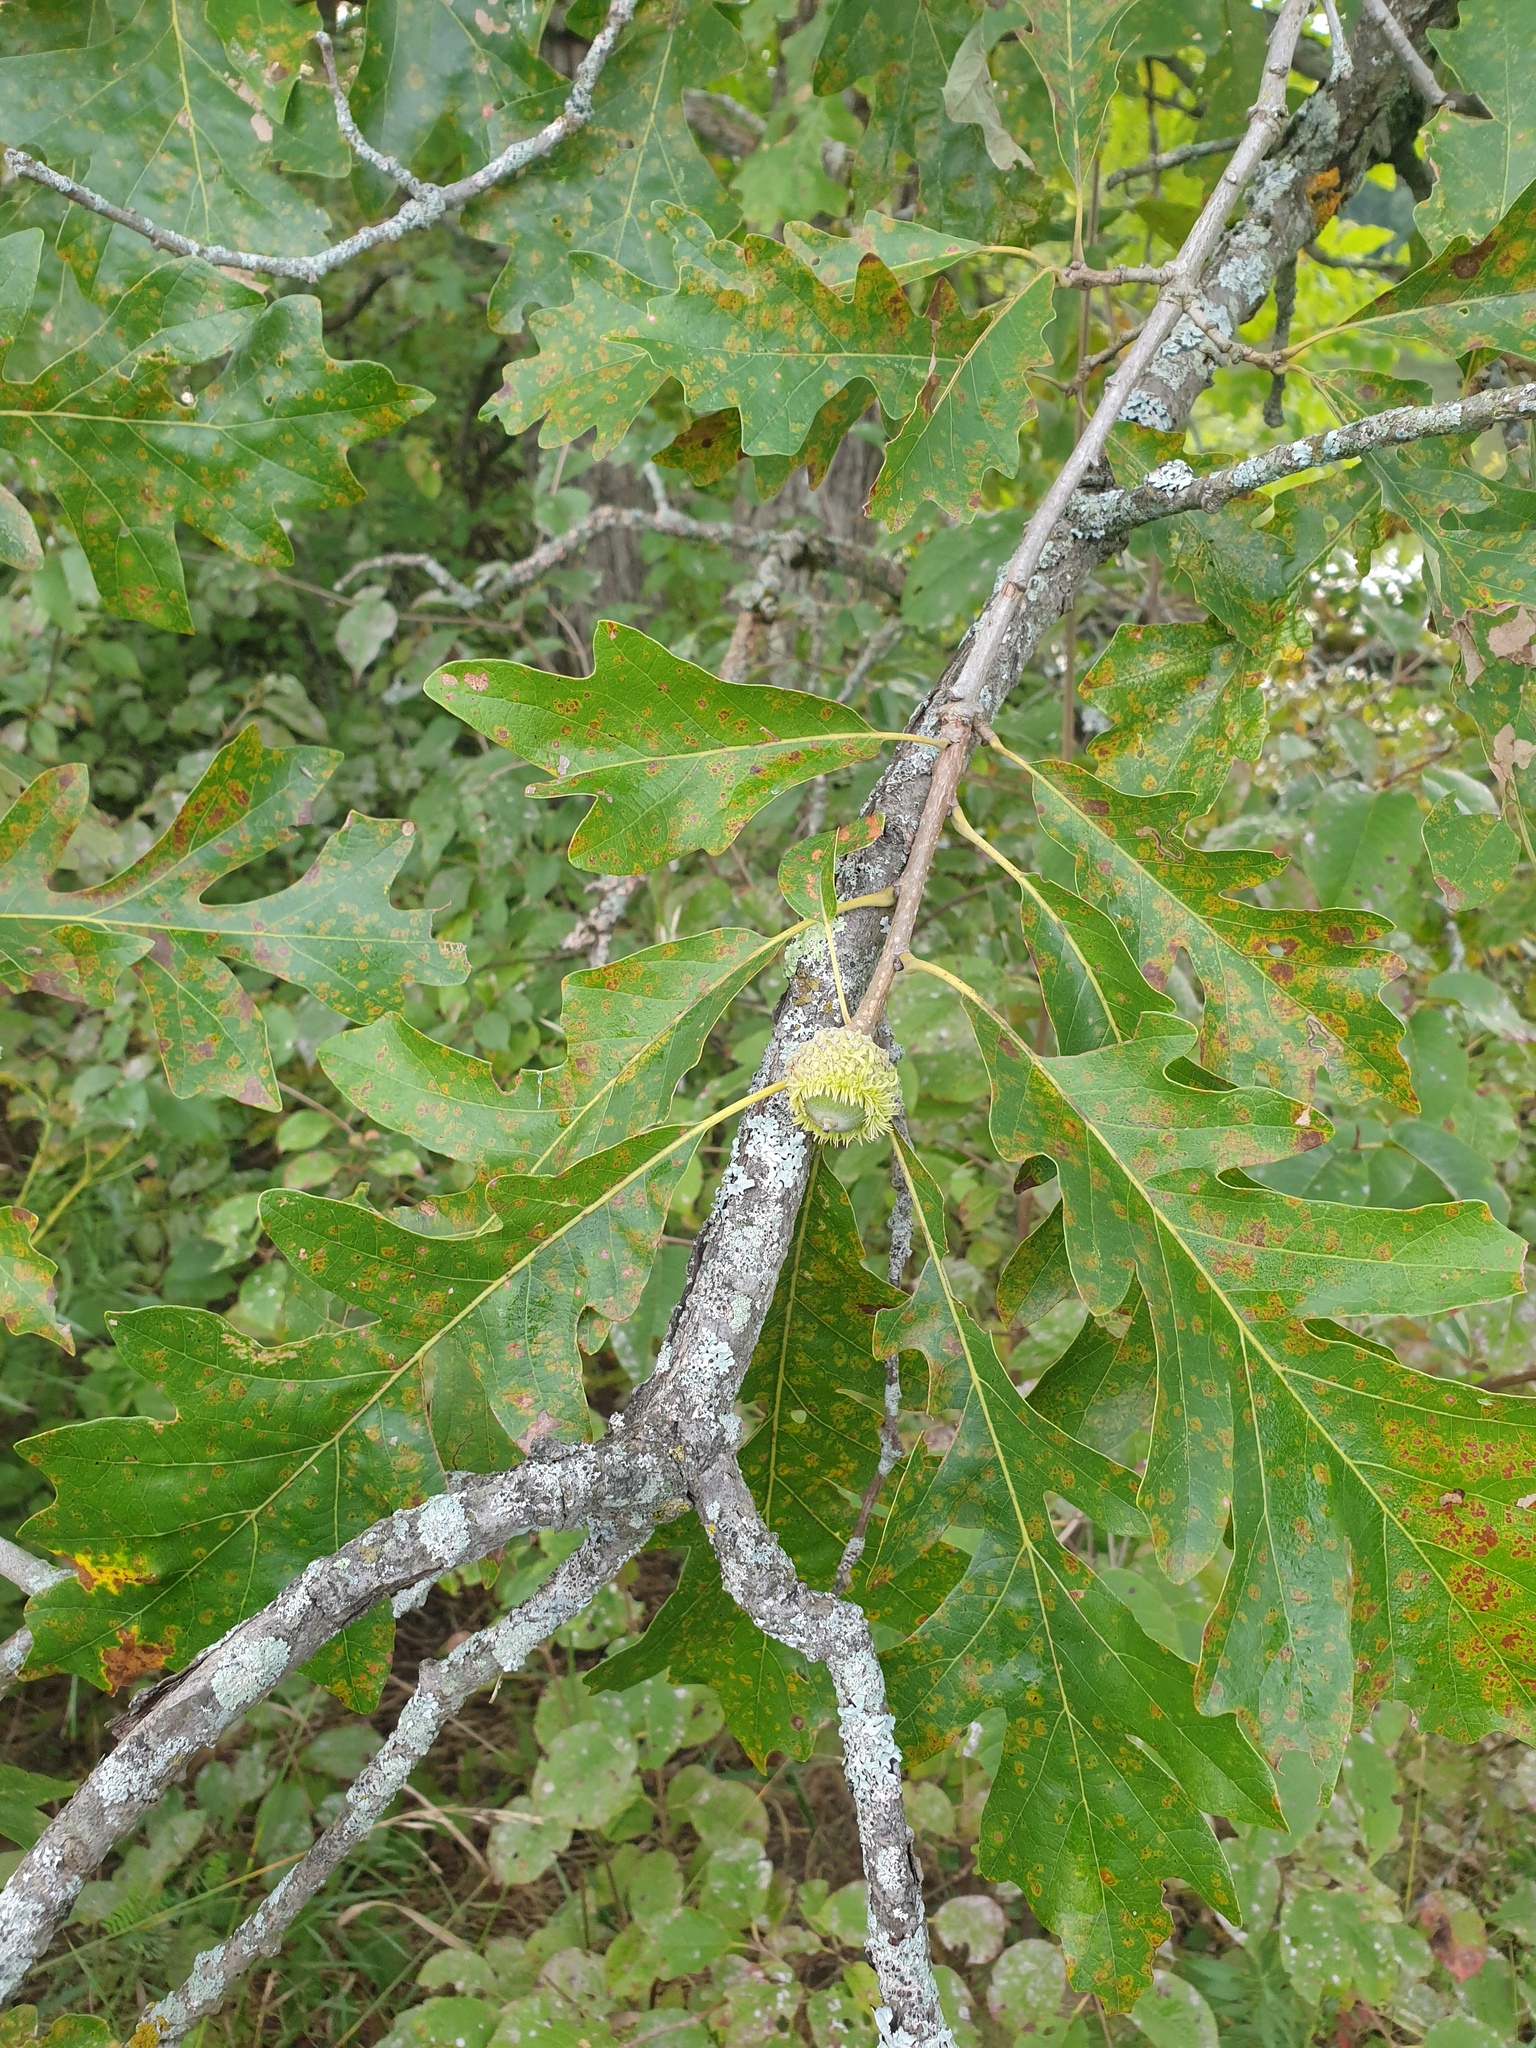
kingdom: Plantae
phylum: Tracheophyta
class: Magnoliopsida
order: Fagales
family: Fagaceae
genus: Quercus
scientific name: Quercus macrocarpa
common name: Bur oak
